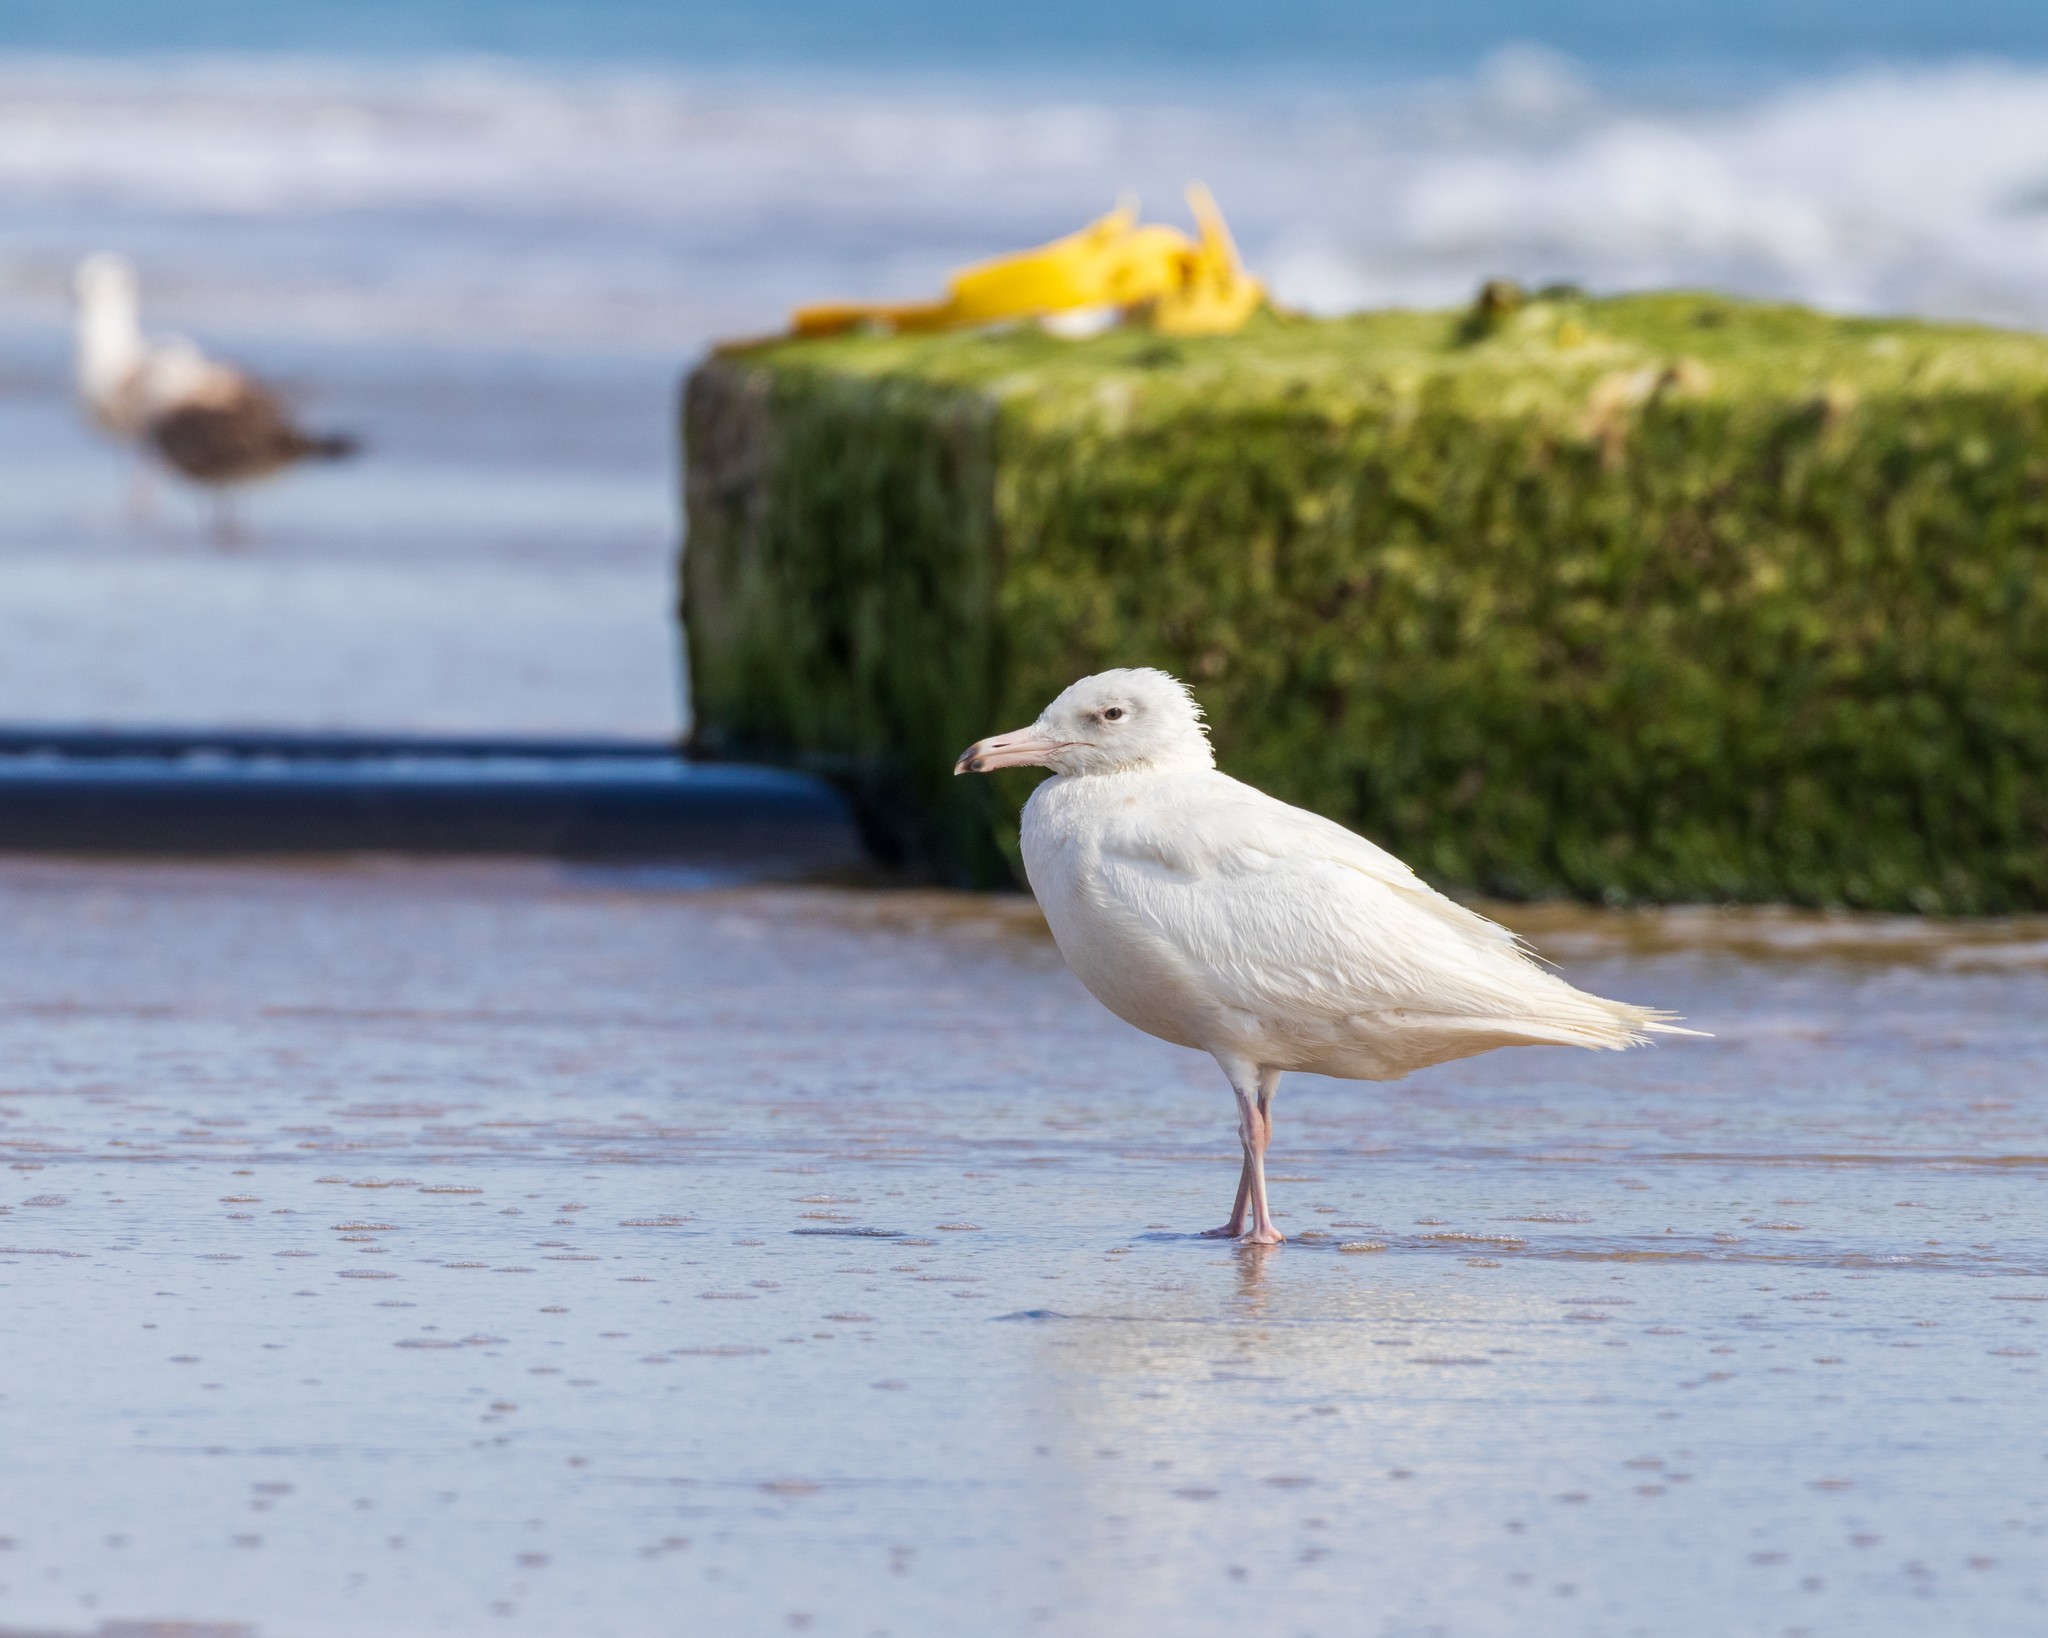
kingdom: Animalia
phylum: Chordata
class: Aves
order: Charadriiformes
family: Laridae
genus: Larus
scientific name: Larus hyperboreus
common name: Glaucous gull
